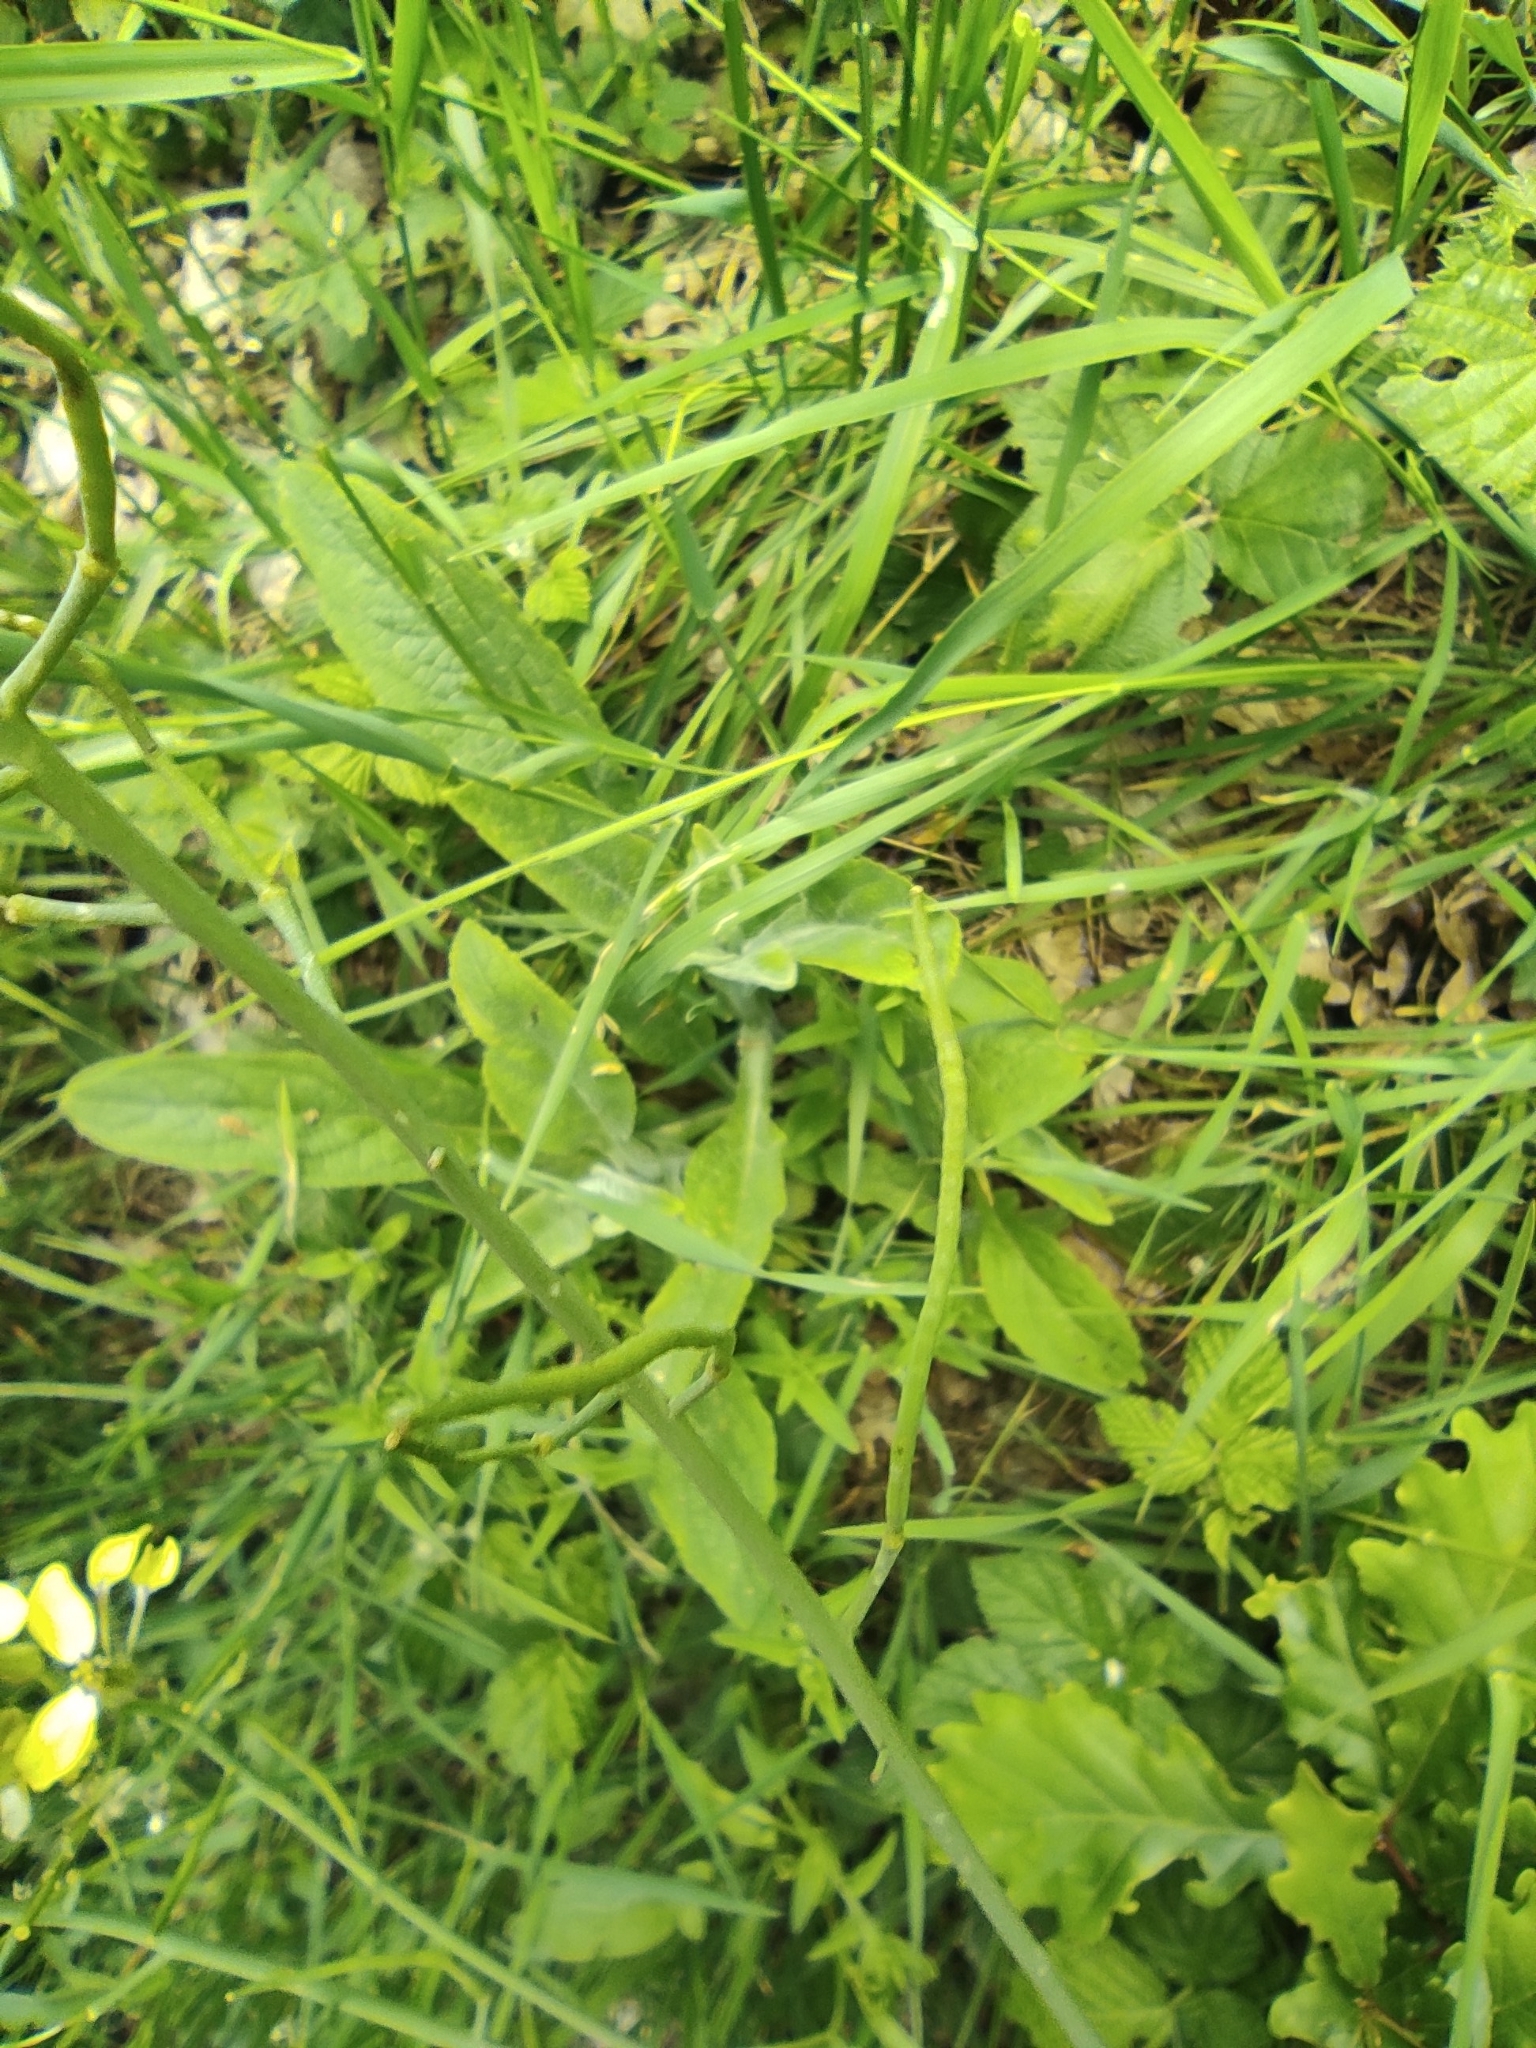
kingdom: Plantae
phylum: Tracheophyta
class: Magnoliopsida
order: Brassicales
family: Brassicaceae
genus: Coincya
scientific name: Coincya monensis
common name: Star-mustard
